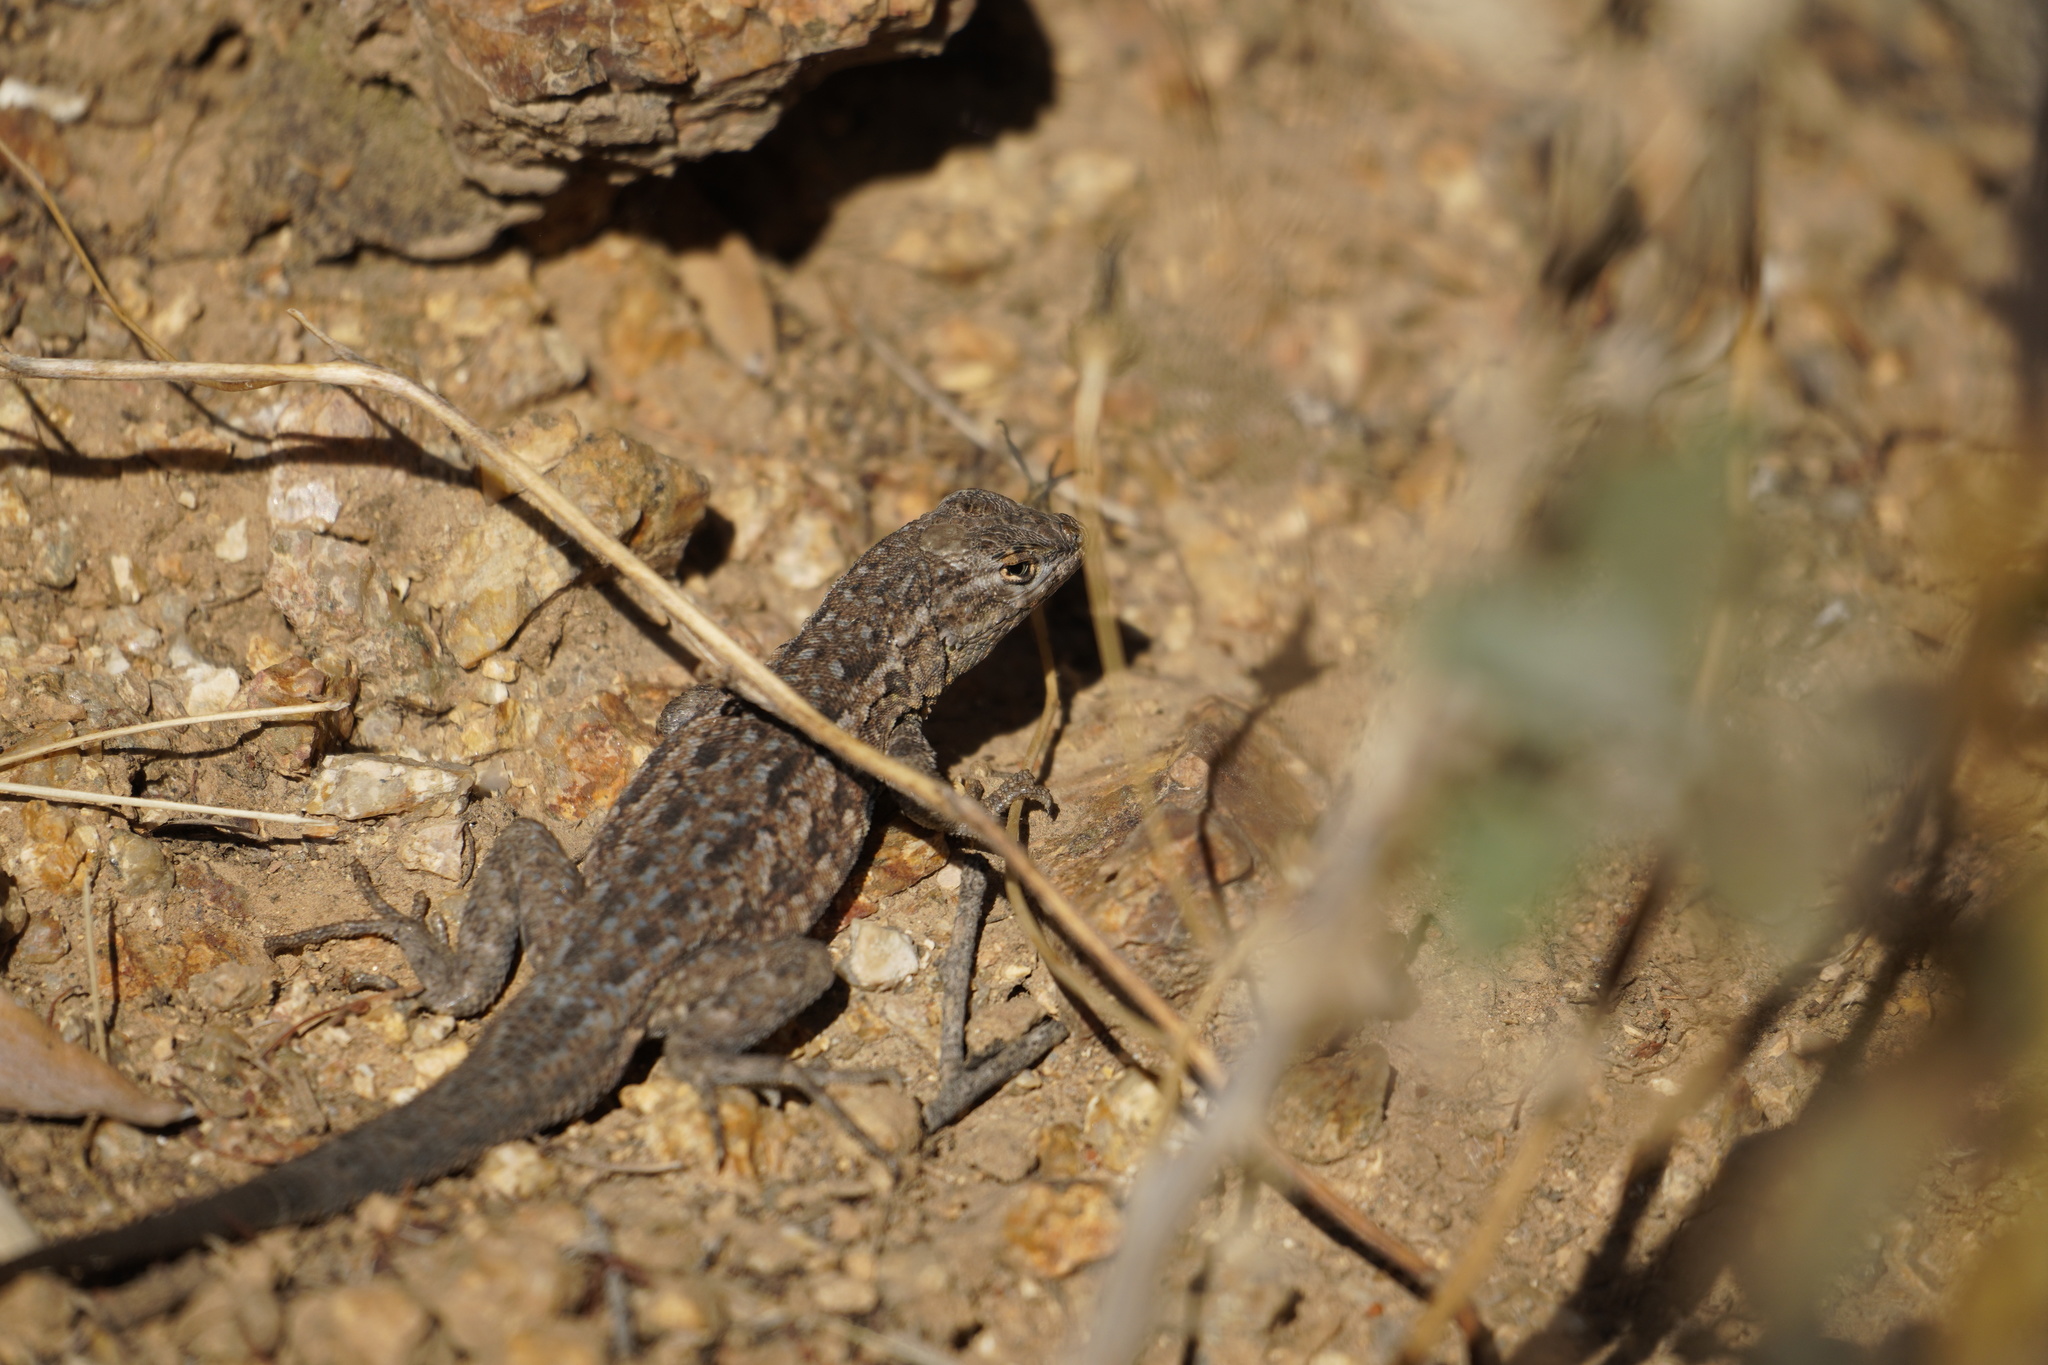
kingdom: Animalia
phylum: Chordata
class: Squamata
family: Phrynosomatidae
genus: Uta
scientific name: Uta stansburiana
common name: Side-blotched lizard
